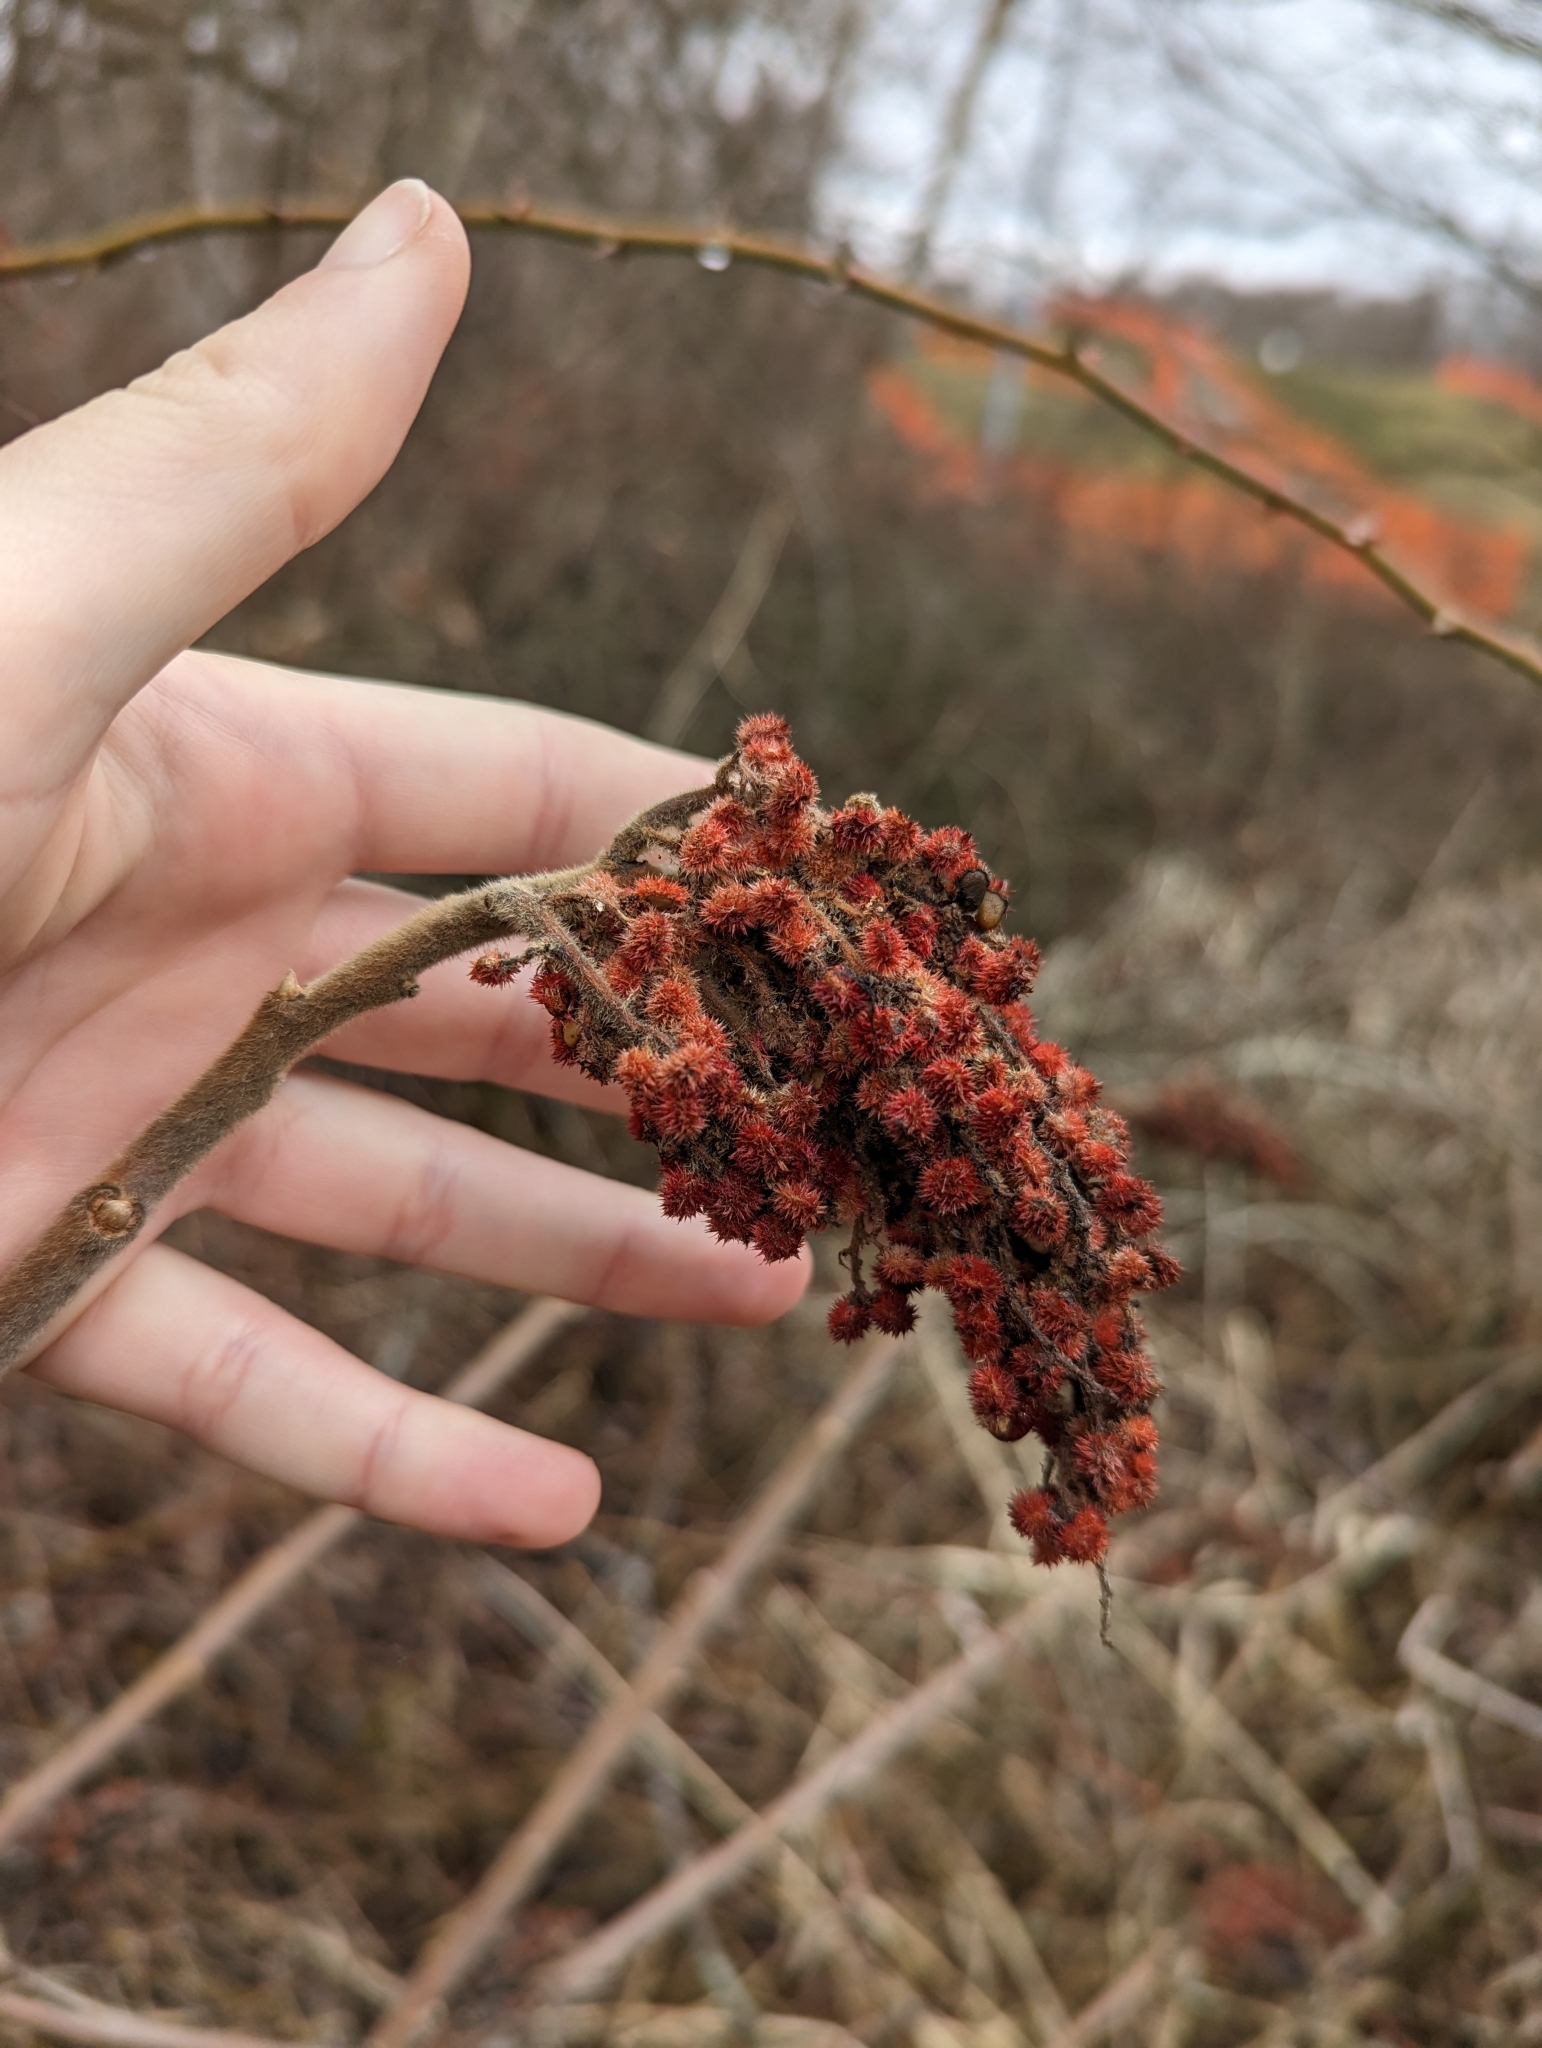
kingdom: Plantae
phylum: Tracheophyta
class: Magnoliopsida
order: Sapindales
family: Anacardiaceae
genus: Rhus
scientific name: Rhus typhina
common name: Staghorn sumac
